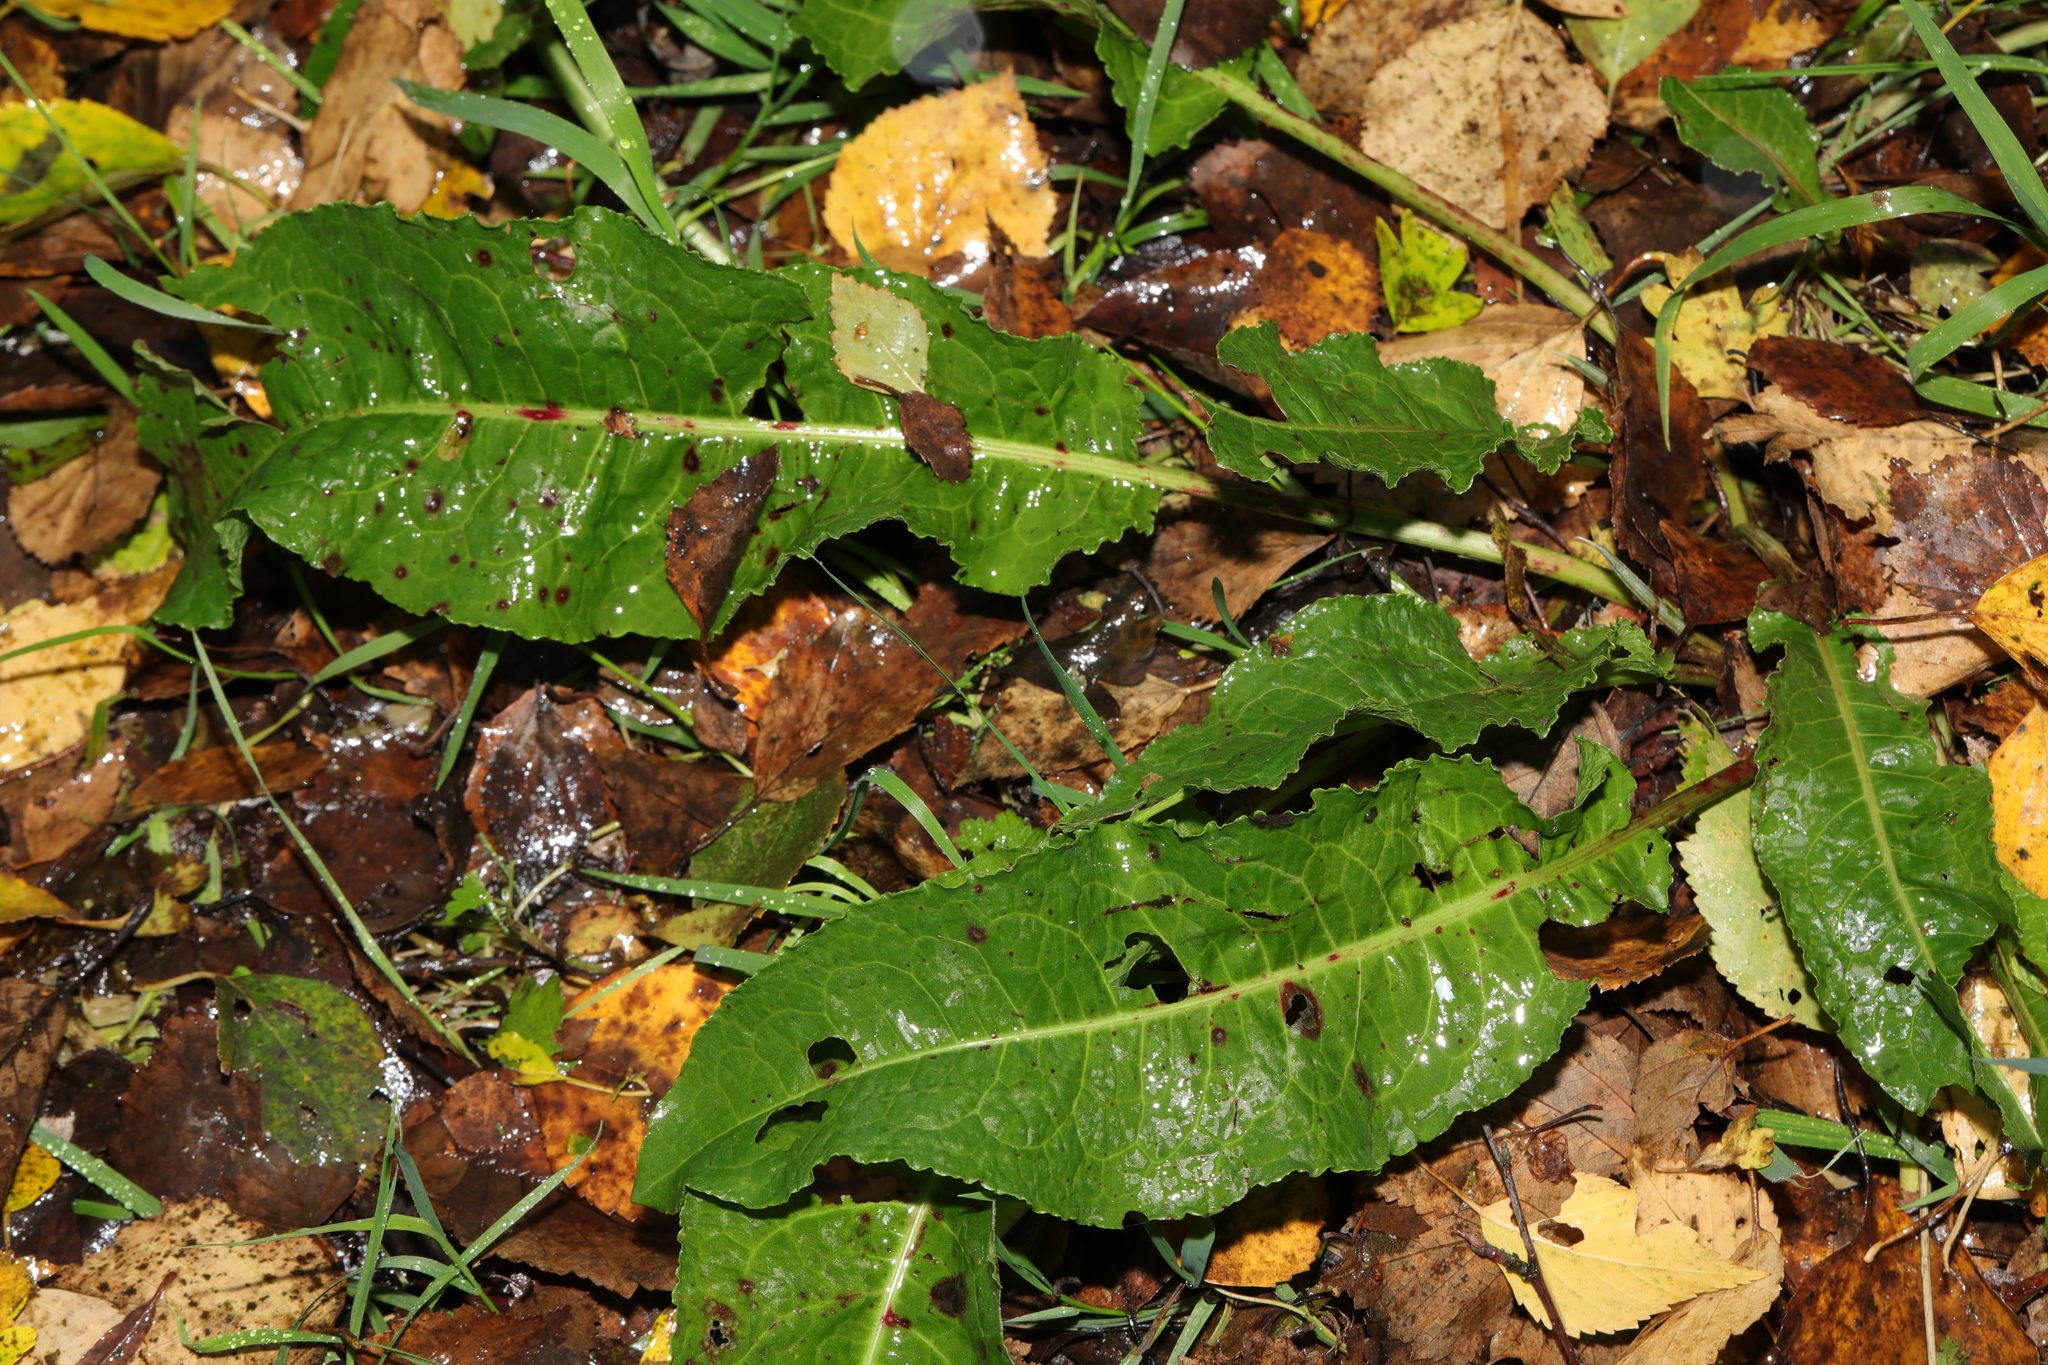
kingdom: Plantae
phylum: Tracheophyta
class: Magnoliopsida
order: Caryophyllales
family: Polygonaceae
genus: Rumex
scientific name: Rumex obtusifolius
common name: Bitter dock
